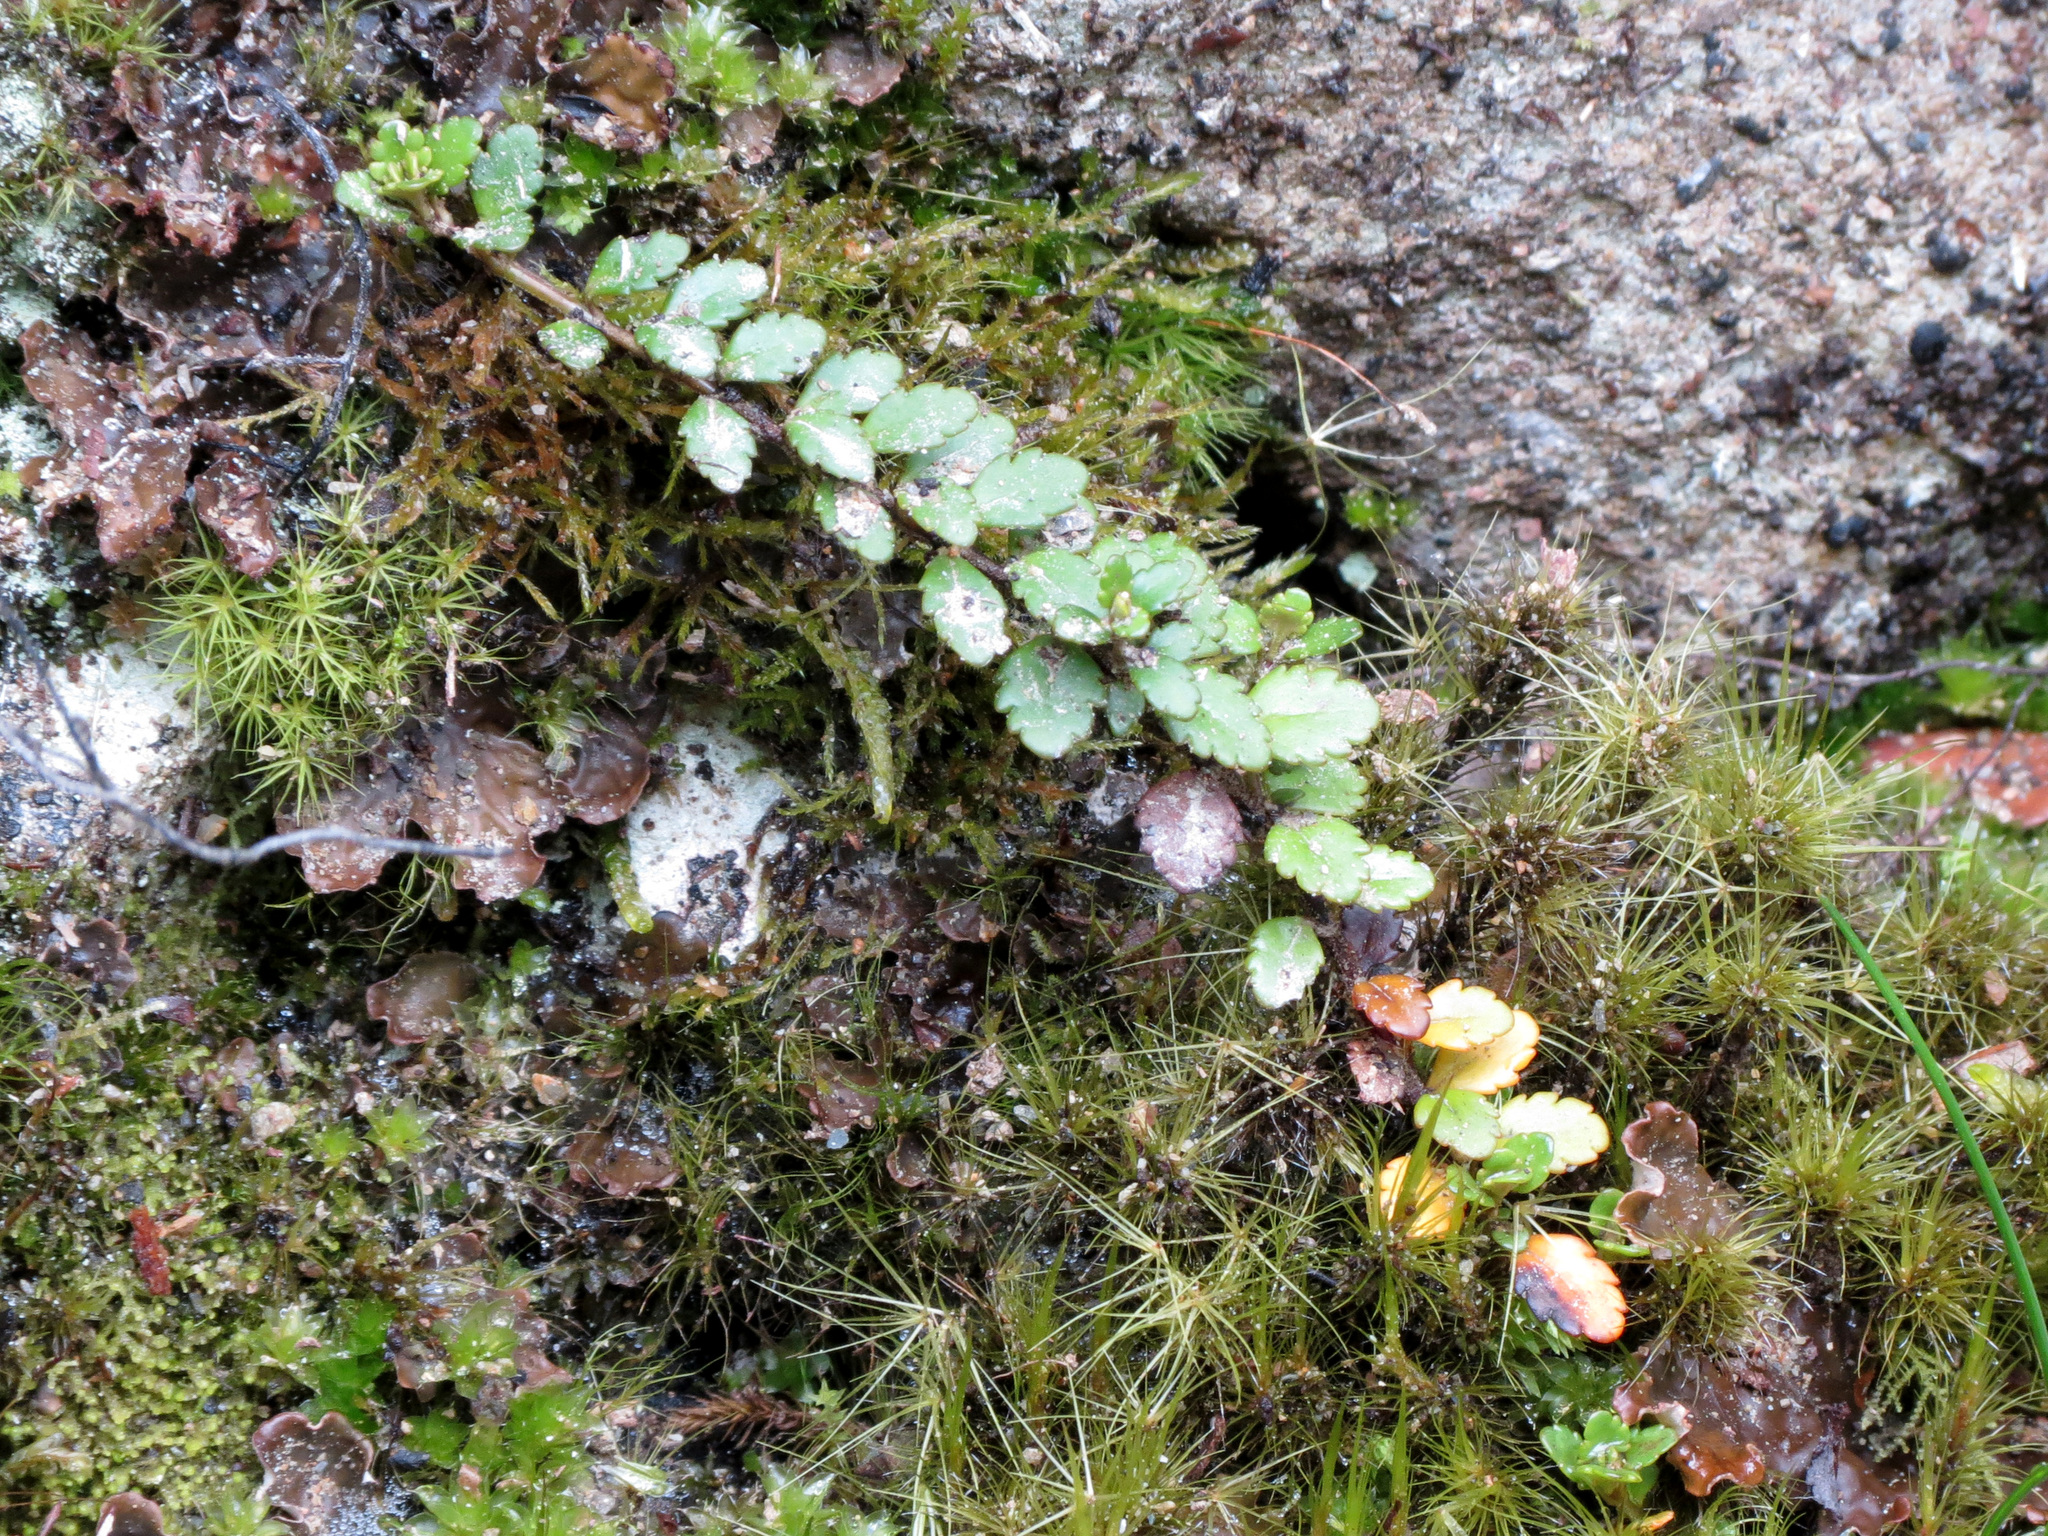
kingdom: Plantae
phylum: Tracheophyta
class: Magnoliopsida
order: Lamiales
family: Plantaginaceae
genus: Veronica
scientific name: Veronica lyallii
